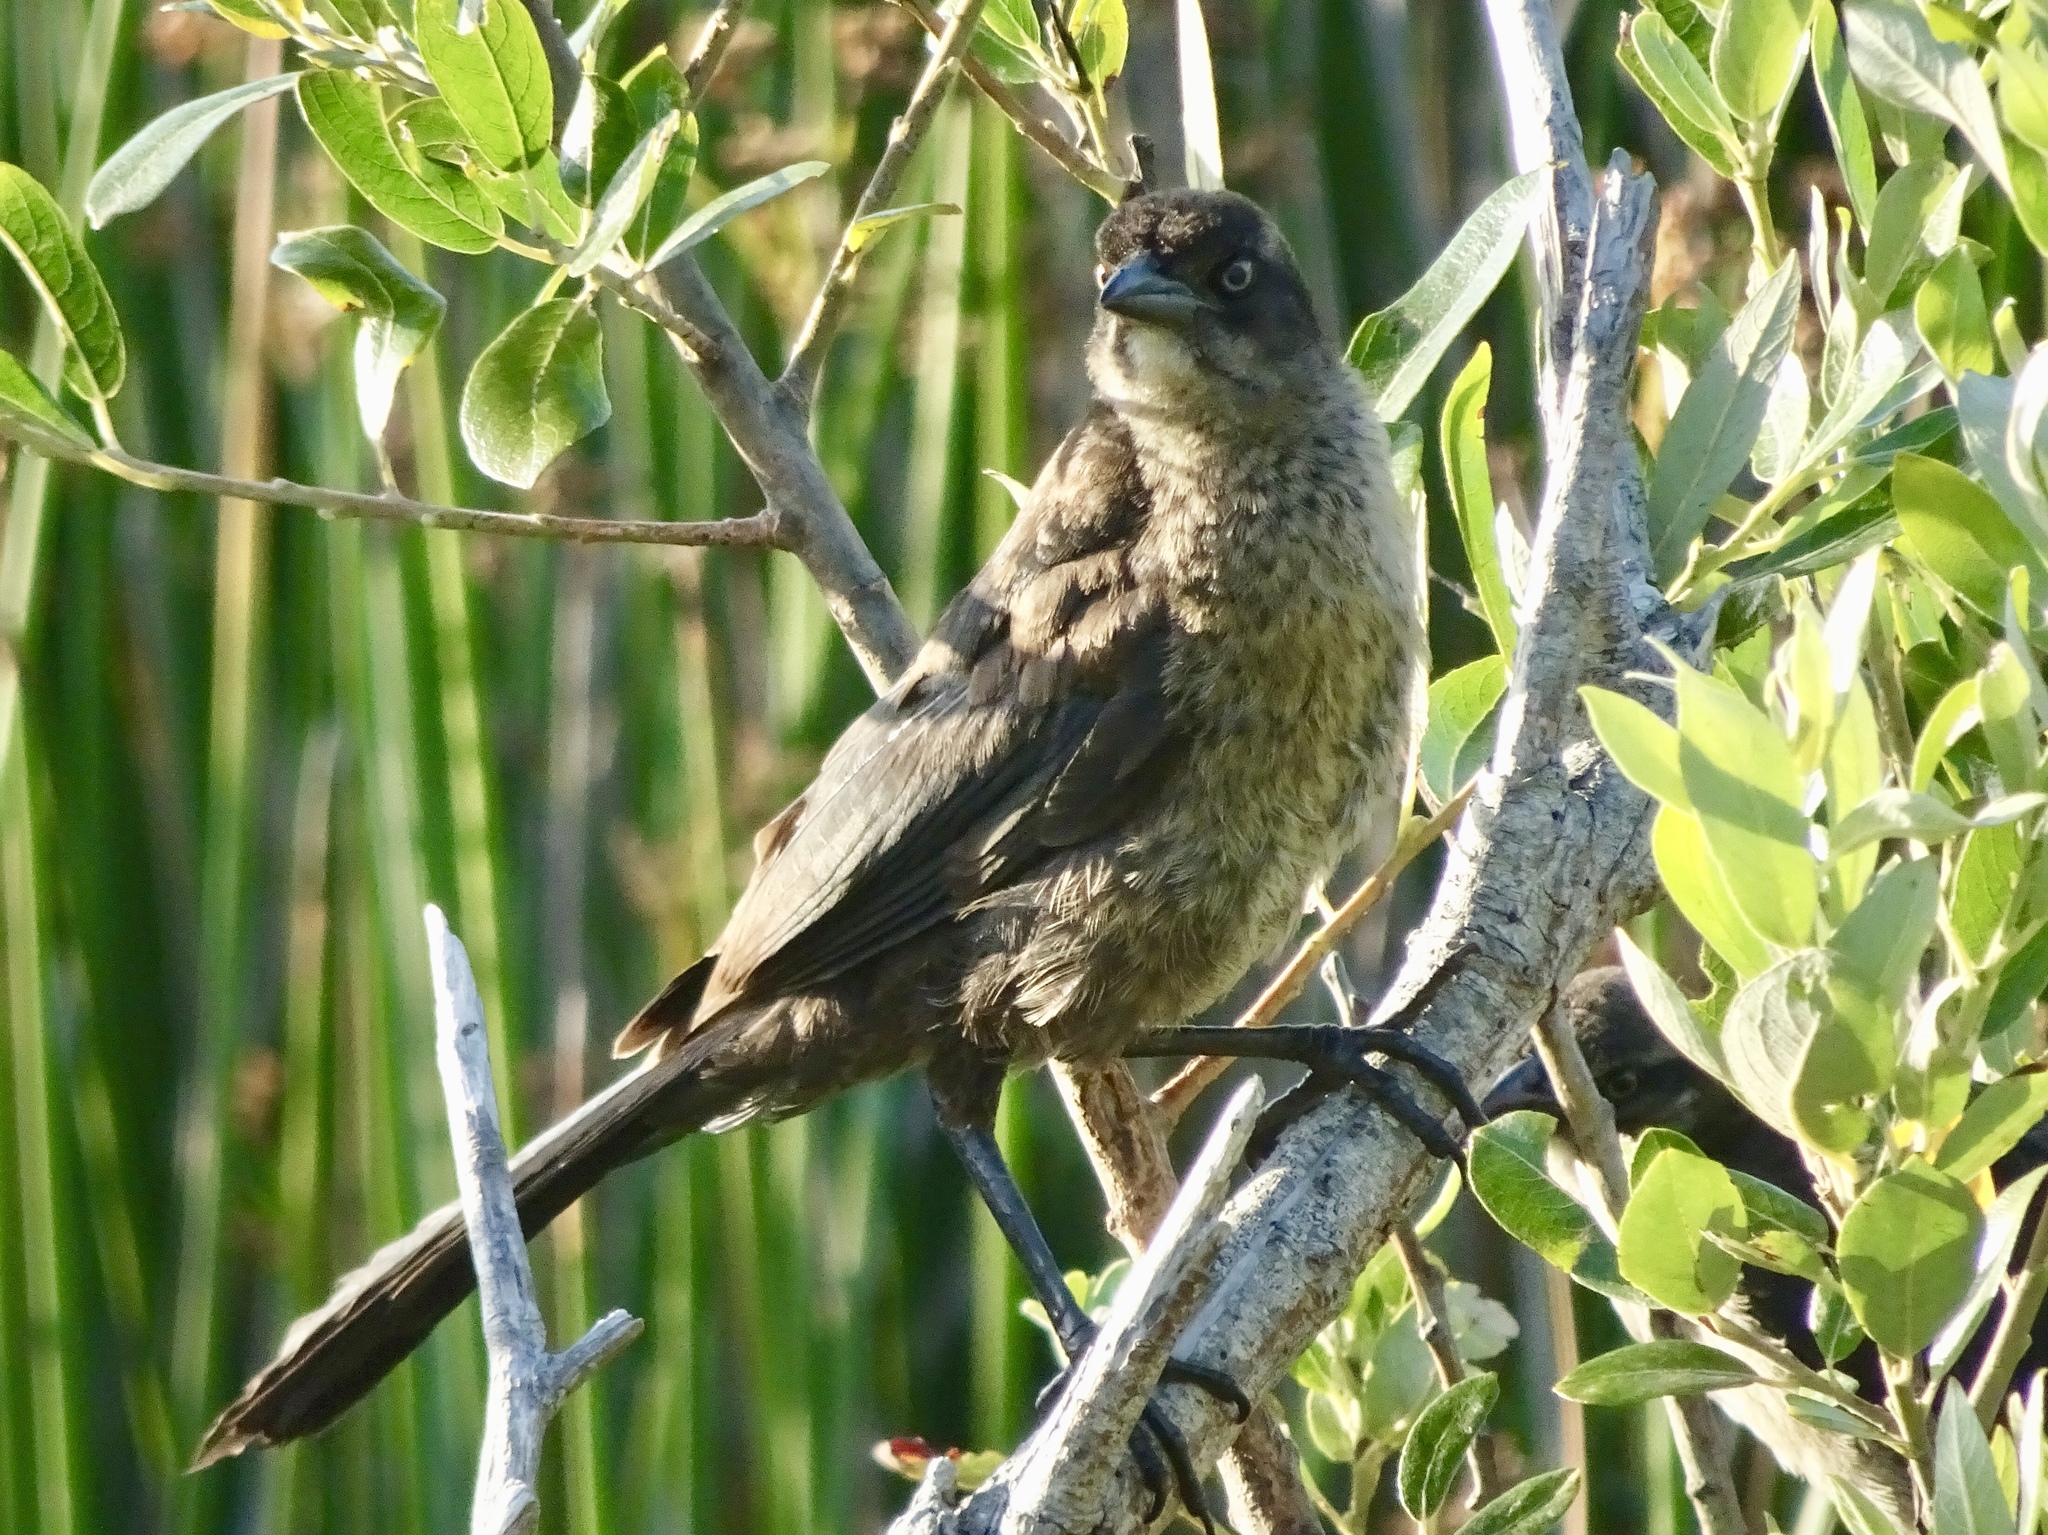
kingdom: Animalia
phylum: Chordata
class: Aves
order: Passeriformes
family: Icteridae
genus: Quiscalus
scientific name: Quiscalus mexicanus
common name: Great-tailed grackle
